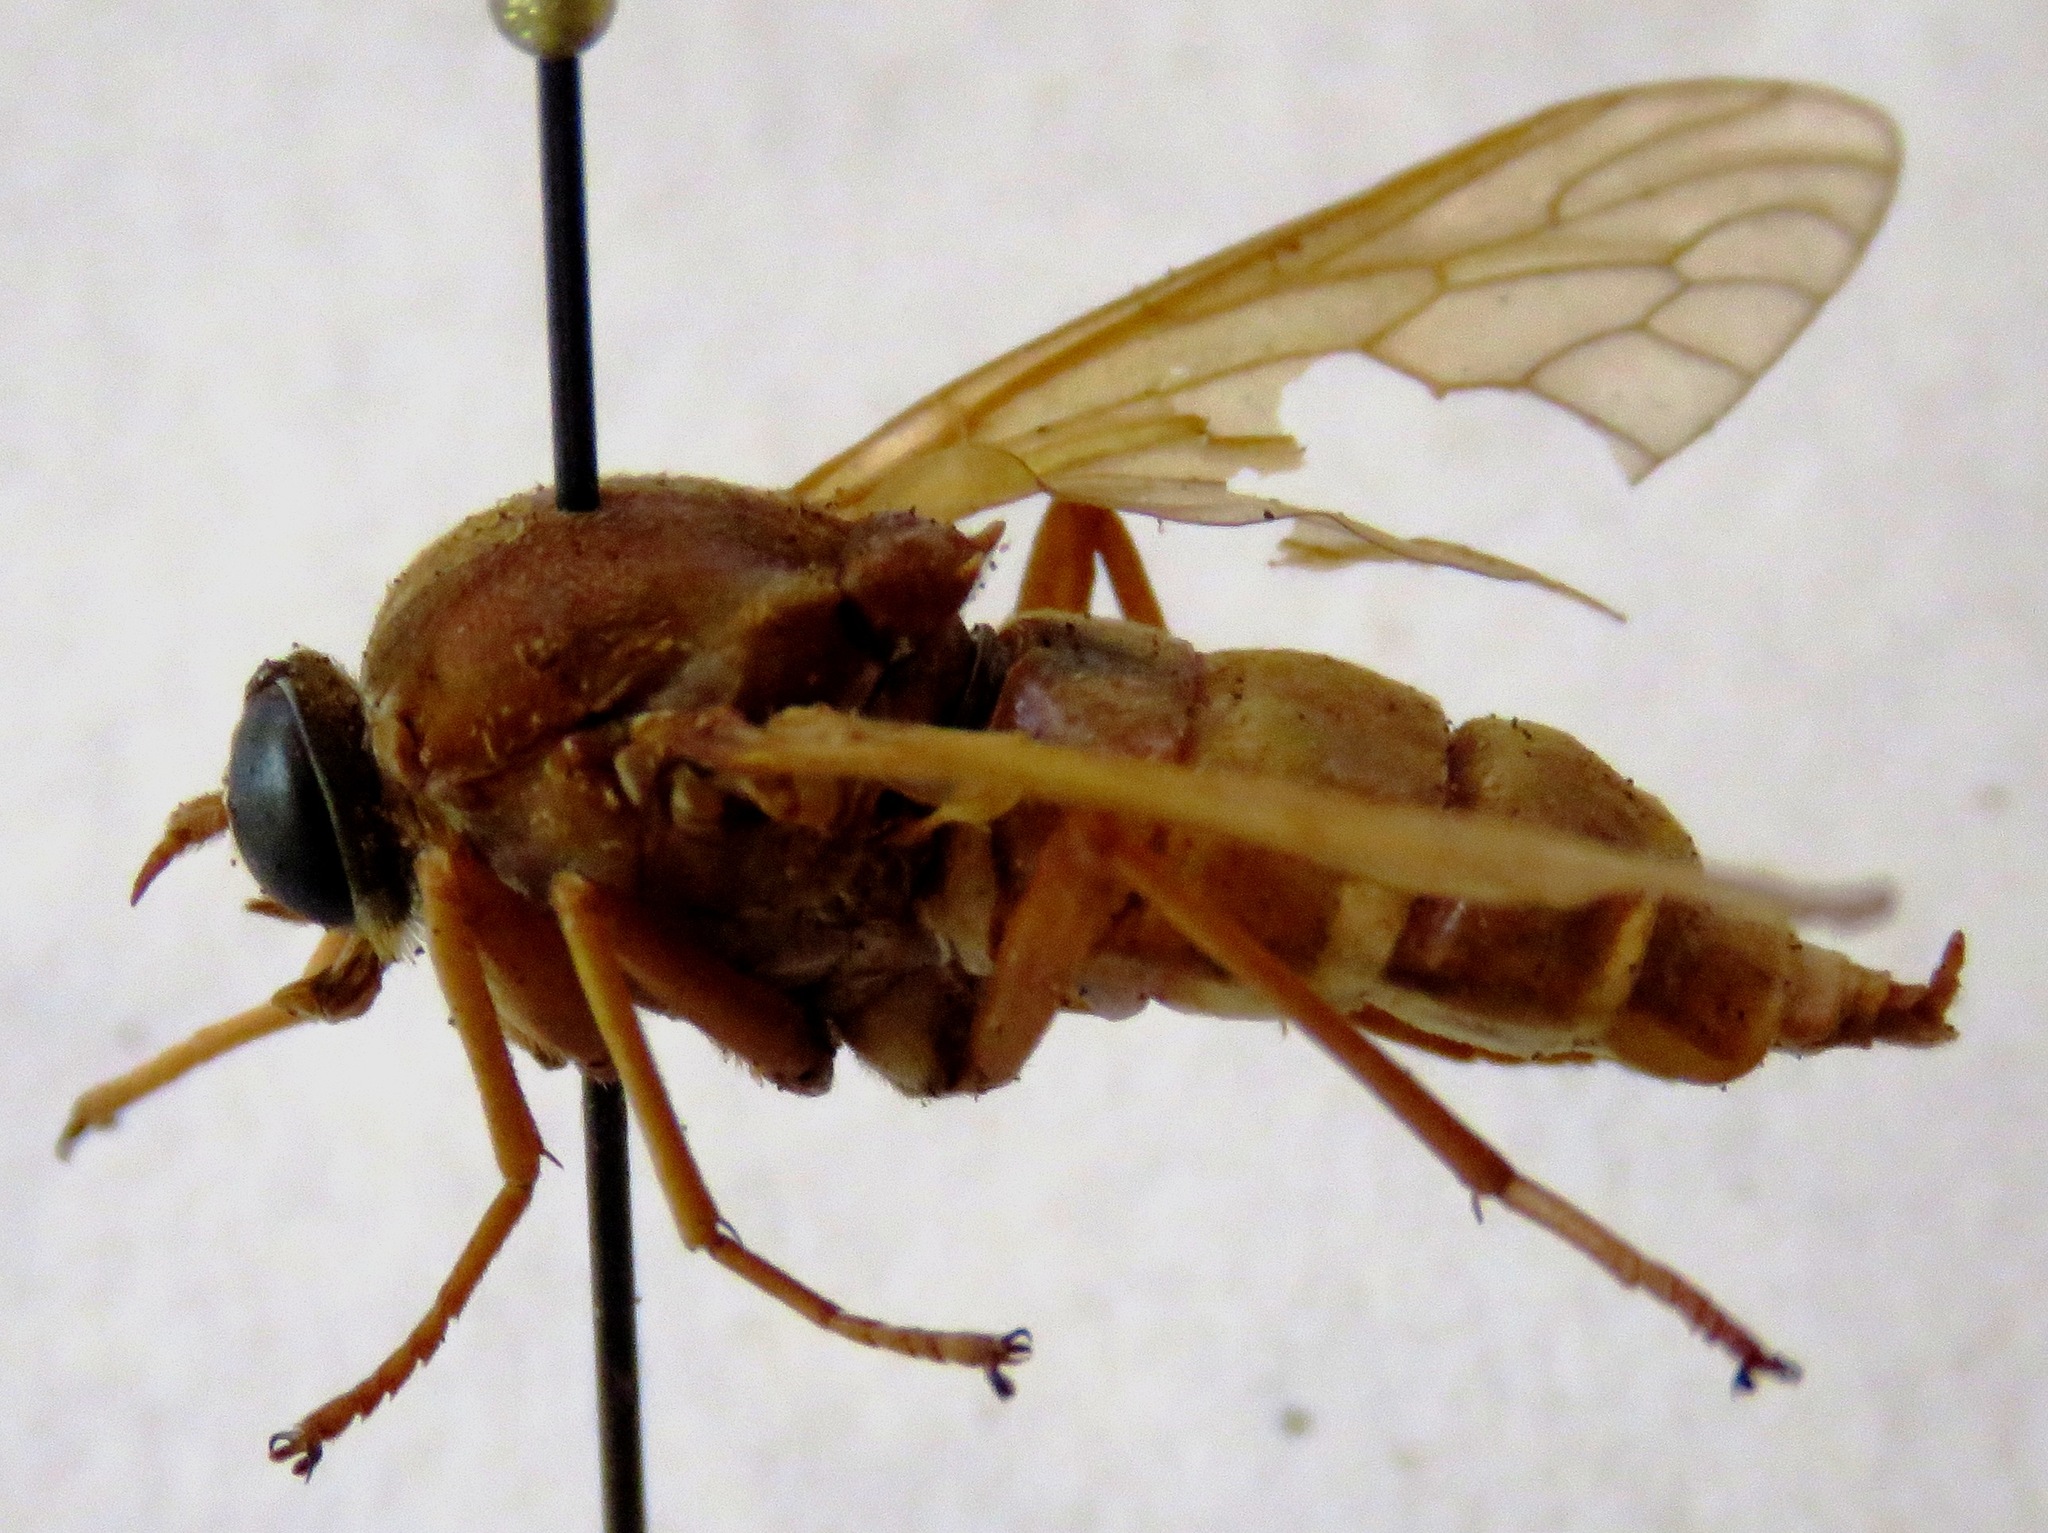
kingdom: Animalia
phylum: Arthropoda
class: Insecta
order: Diptera
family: Xylophagidae
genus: Coenomyia
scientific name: Coenomyia ferruginea
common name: Stink fly
